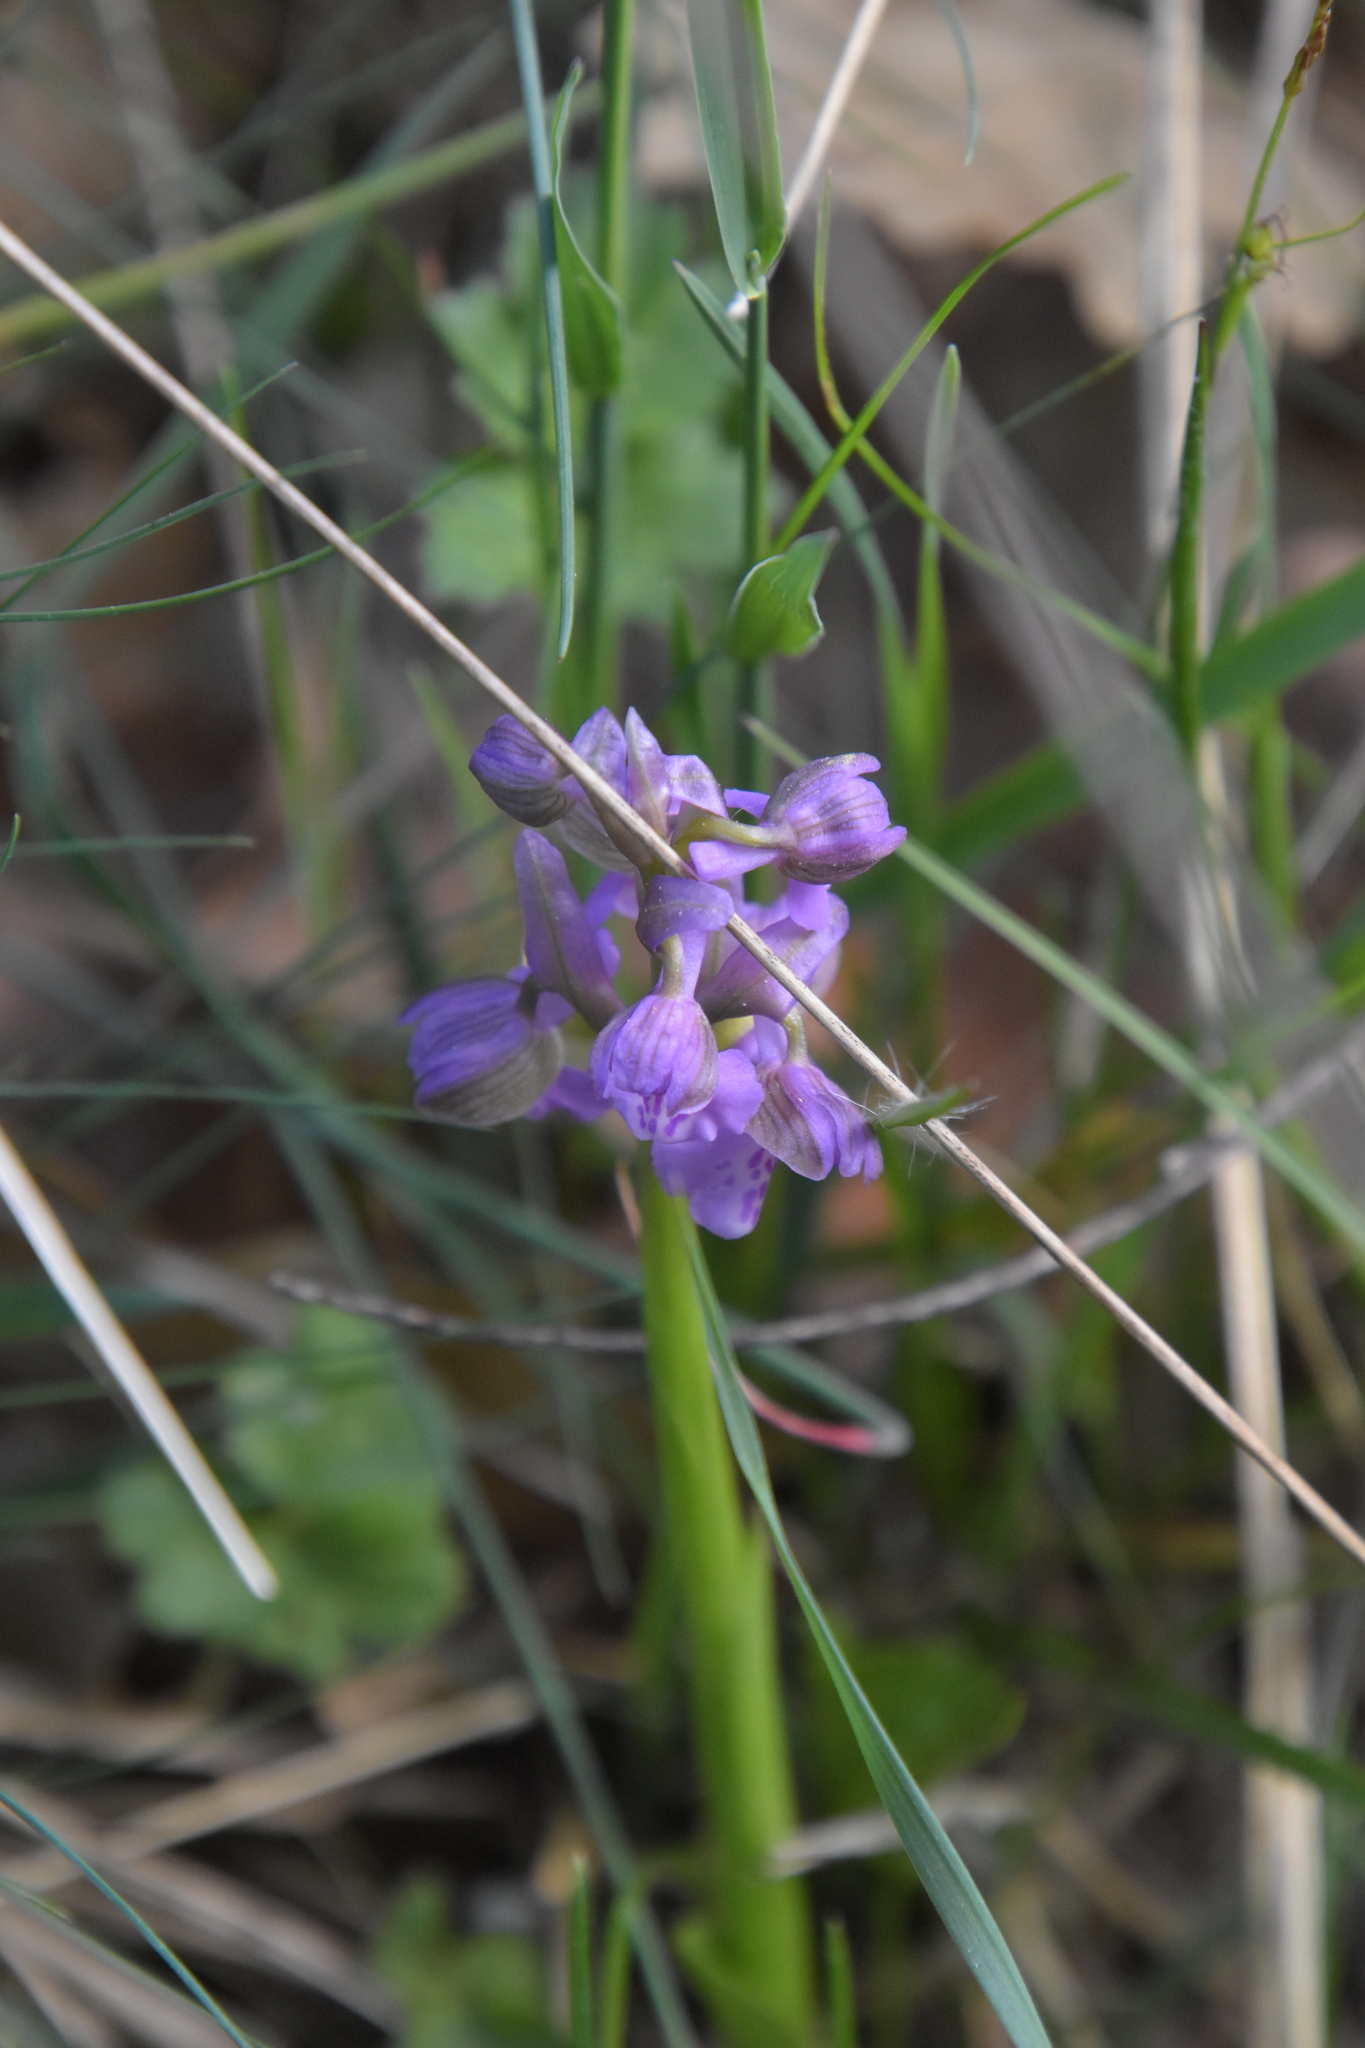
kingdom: Plantae
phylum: Tracheophyta
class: Liliopsida
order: Asparagales
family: Orchidaceae
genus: Anacamptis
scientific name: Anacamptis morio
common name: Green-winged orchid
